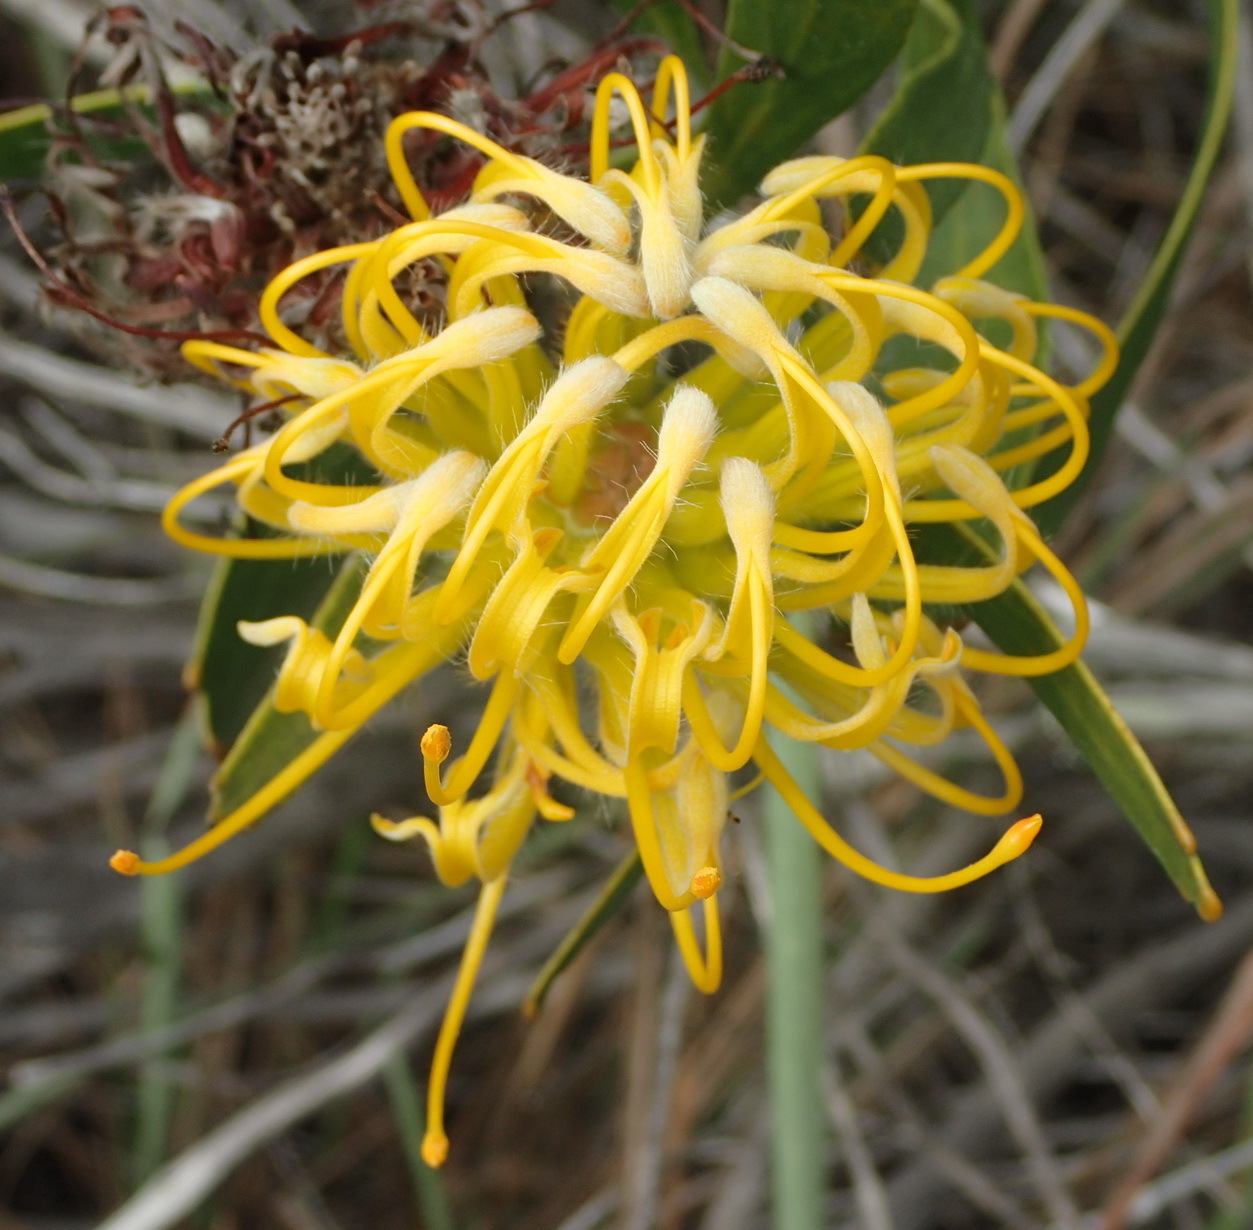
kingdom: Plantae
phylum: Tracheophyta
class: Magnoliopsida
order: Proteales
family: Proteaceae
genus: Leucospermum
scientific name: Leucospermum cuneiforme
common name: Common pincushion
